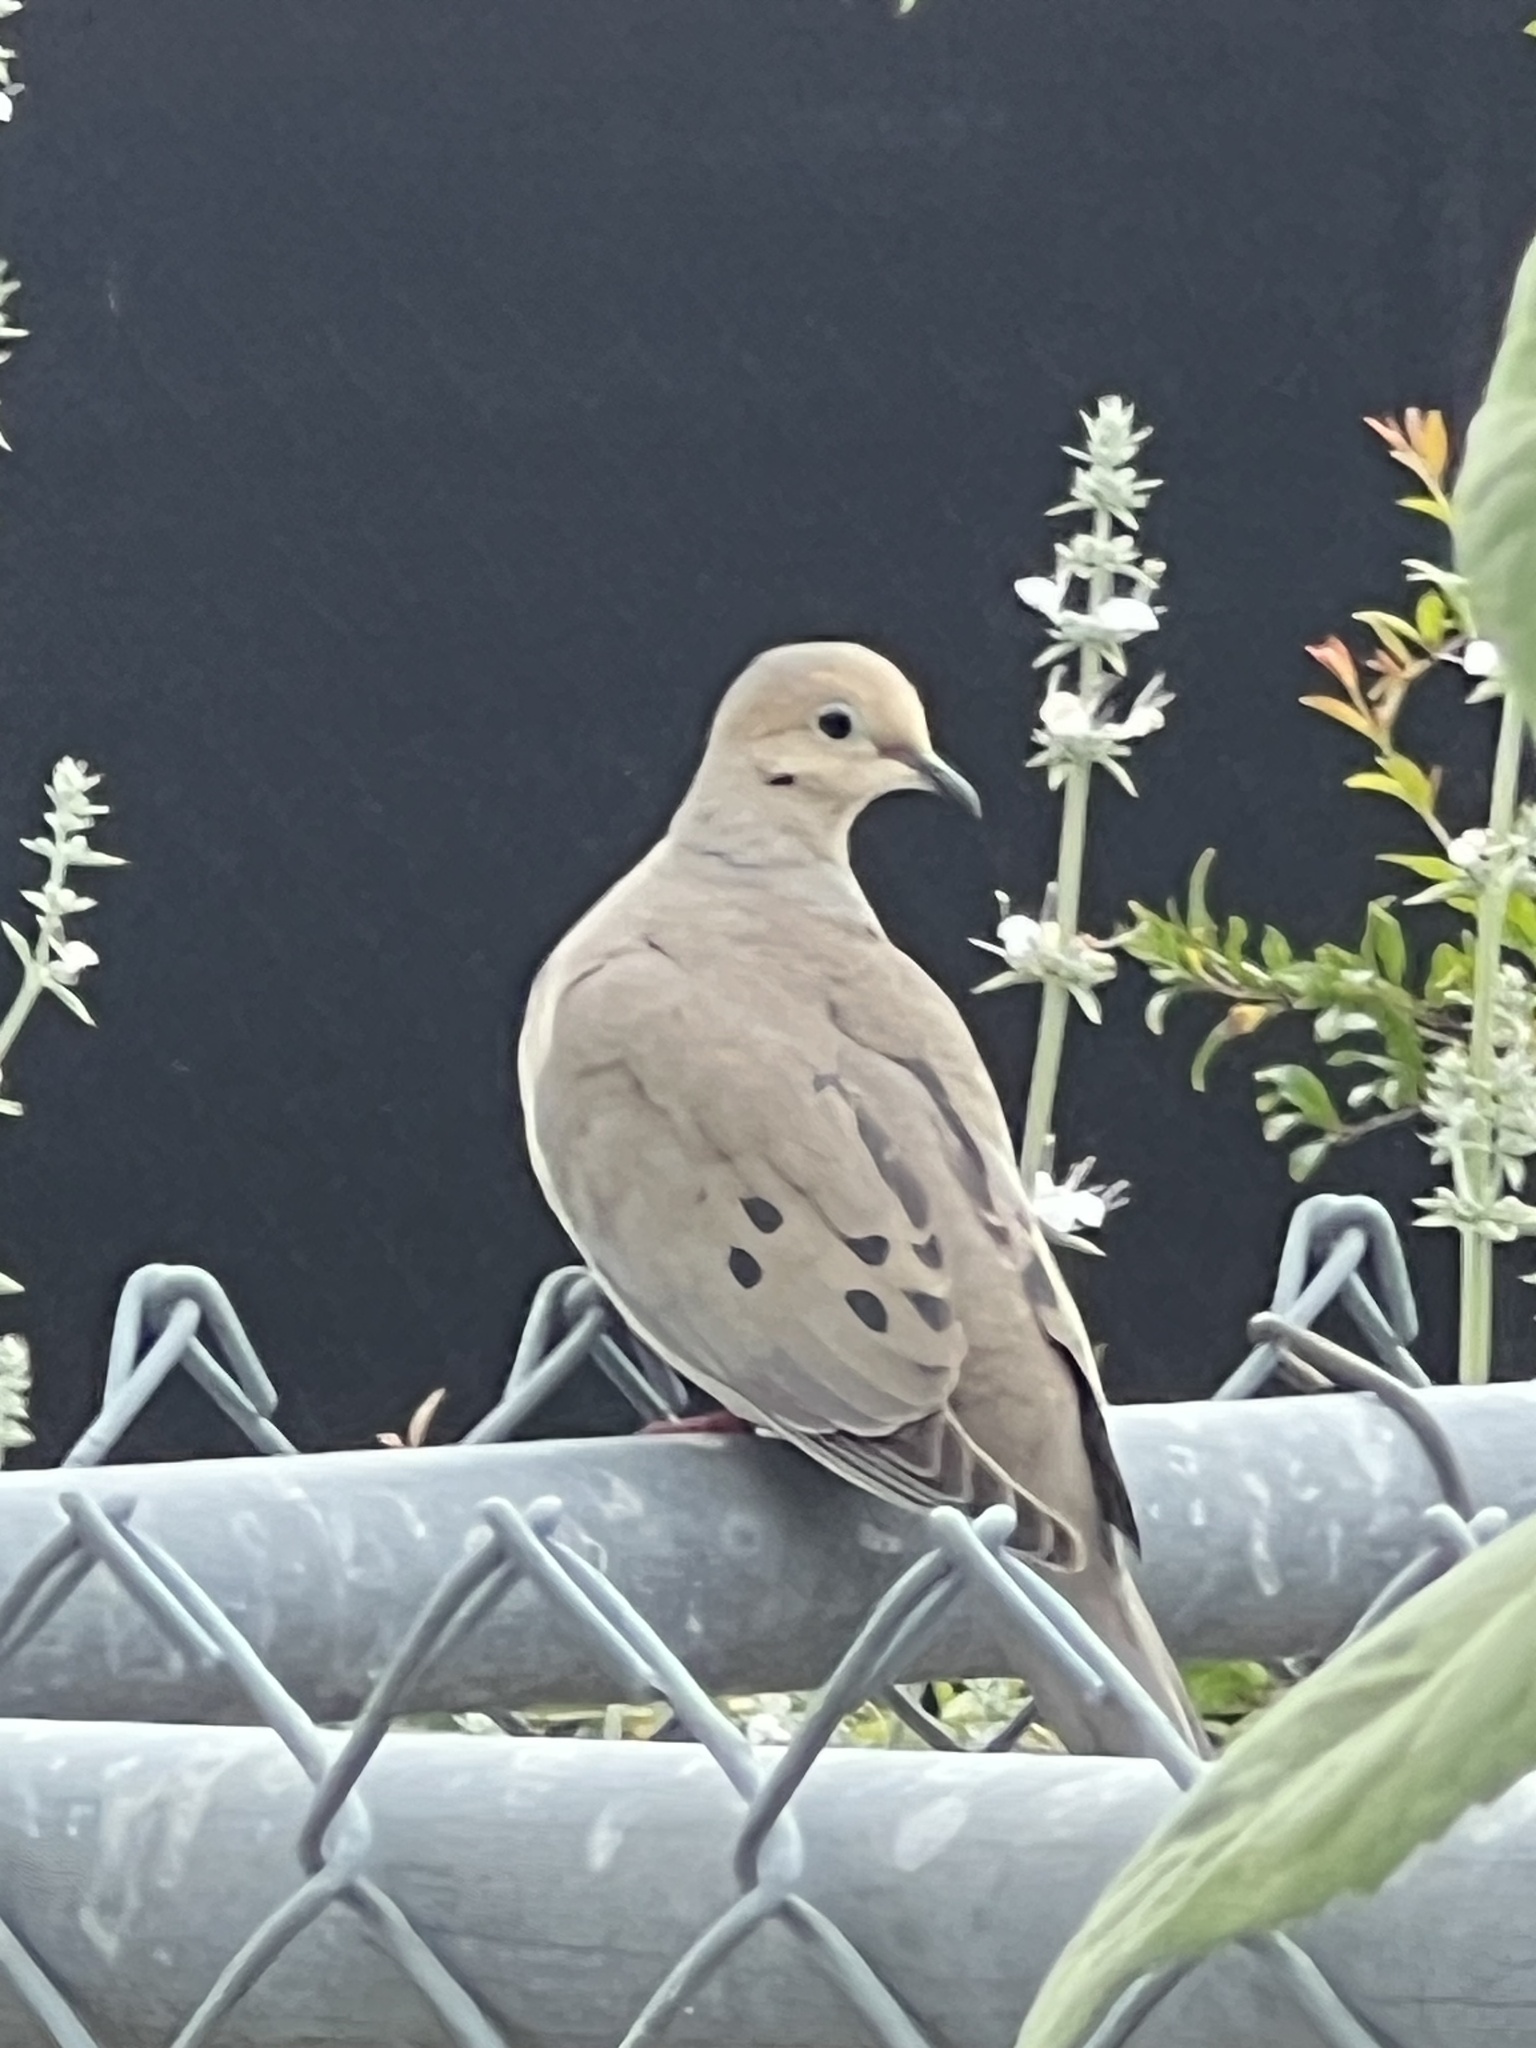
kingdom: Animalia
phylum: Chordata
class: Aves
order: Columbiformes
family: Columbidae
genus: Zenaida
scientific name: Zenaida macroura
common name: Mourning dove
